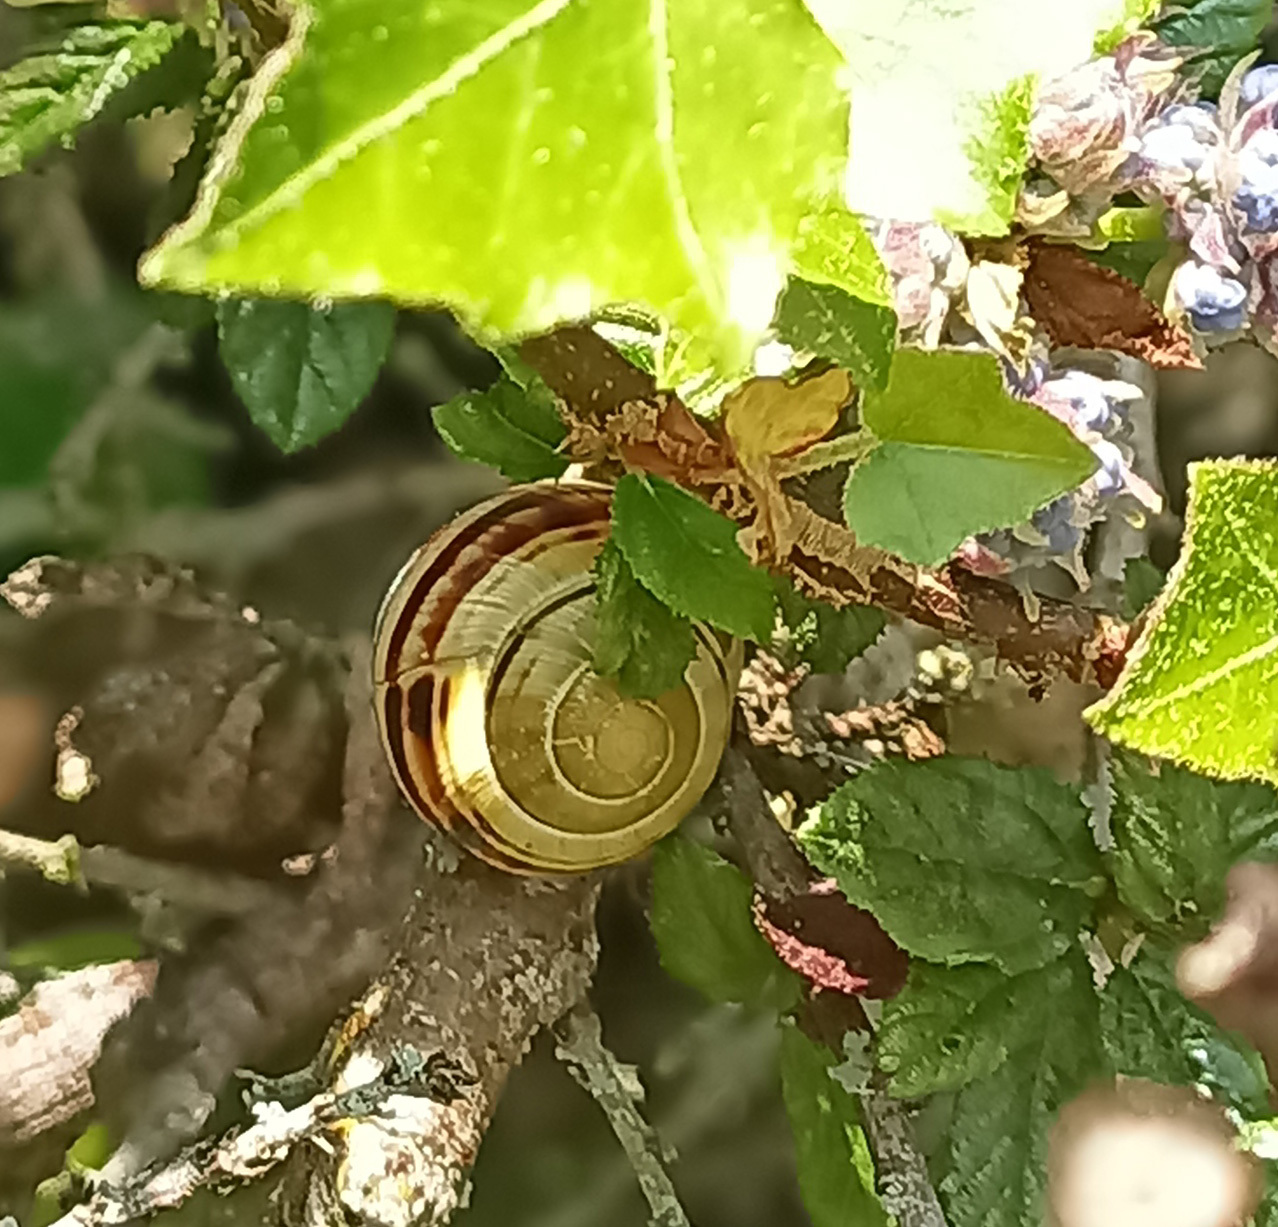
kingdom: Animalia
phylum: Mollusca
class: Gastropoda
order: Stylommatophora
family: Helicidae
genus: Cepaea
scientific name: Cepaea
